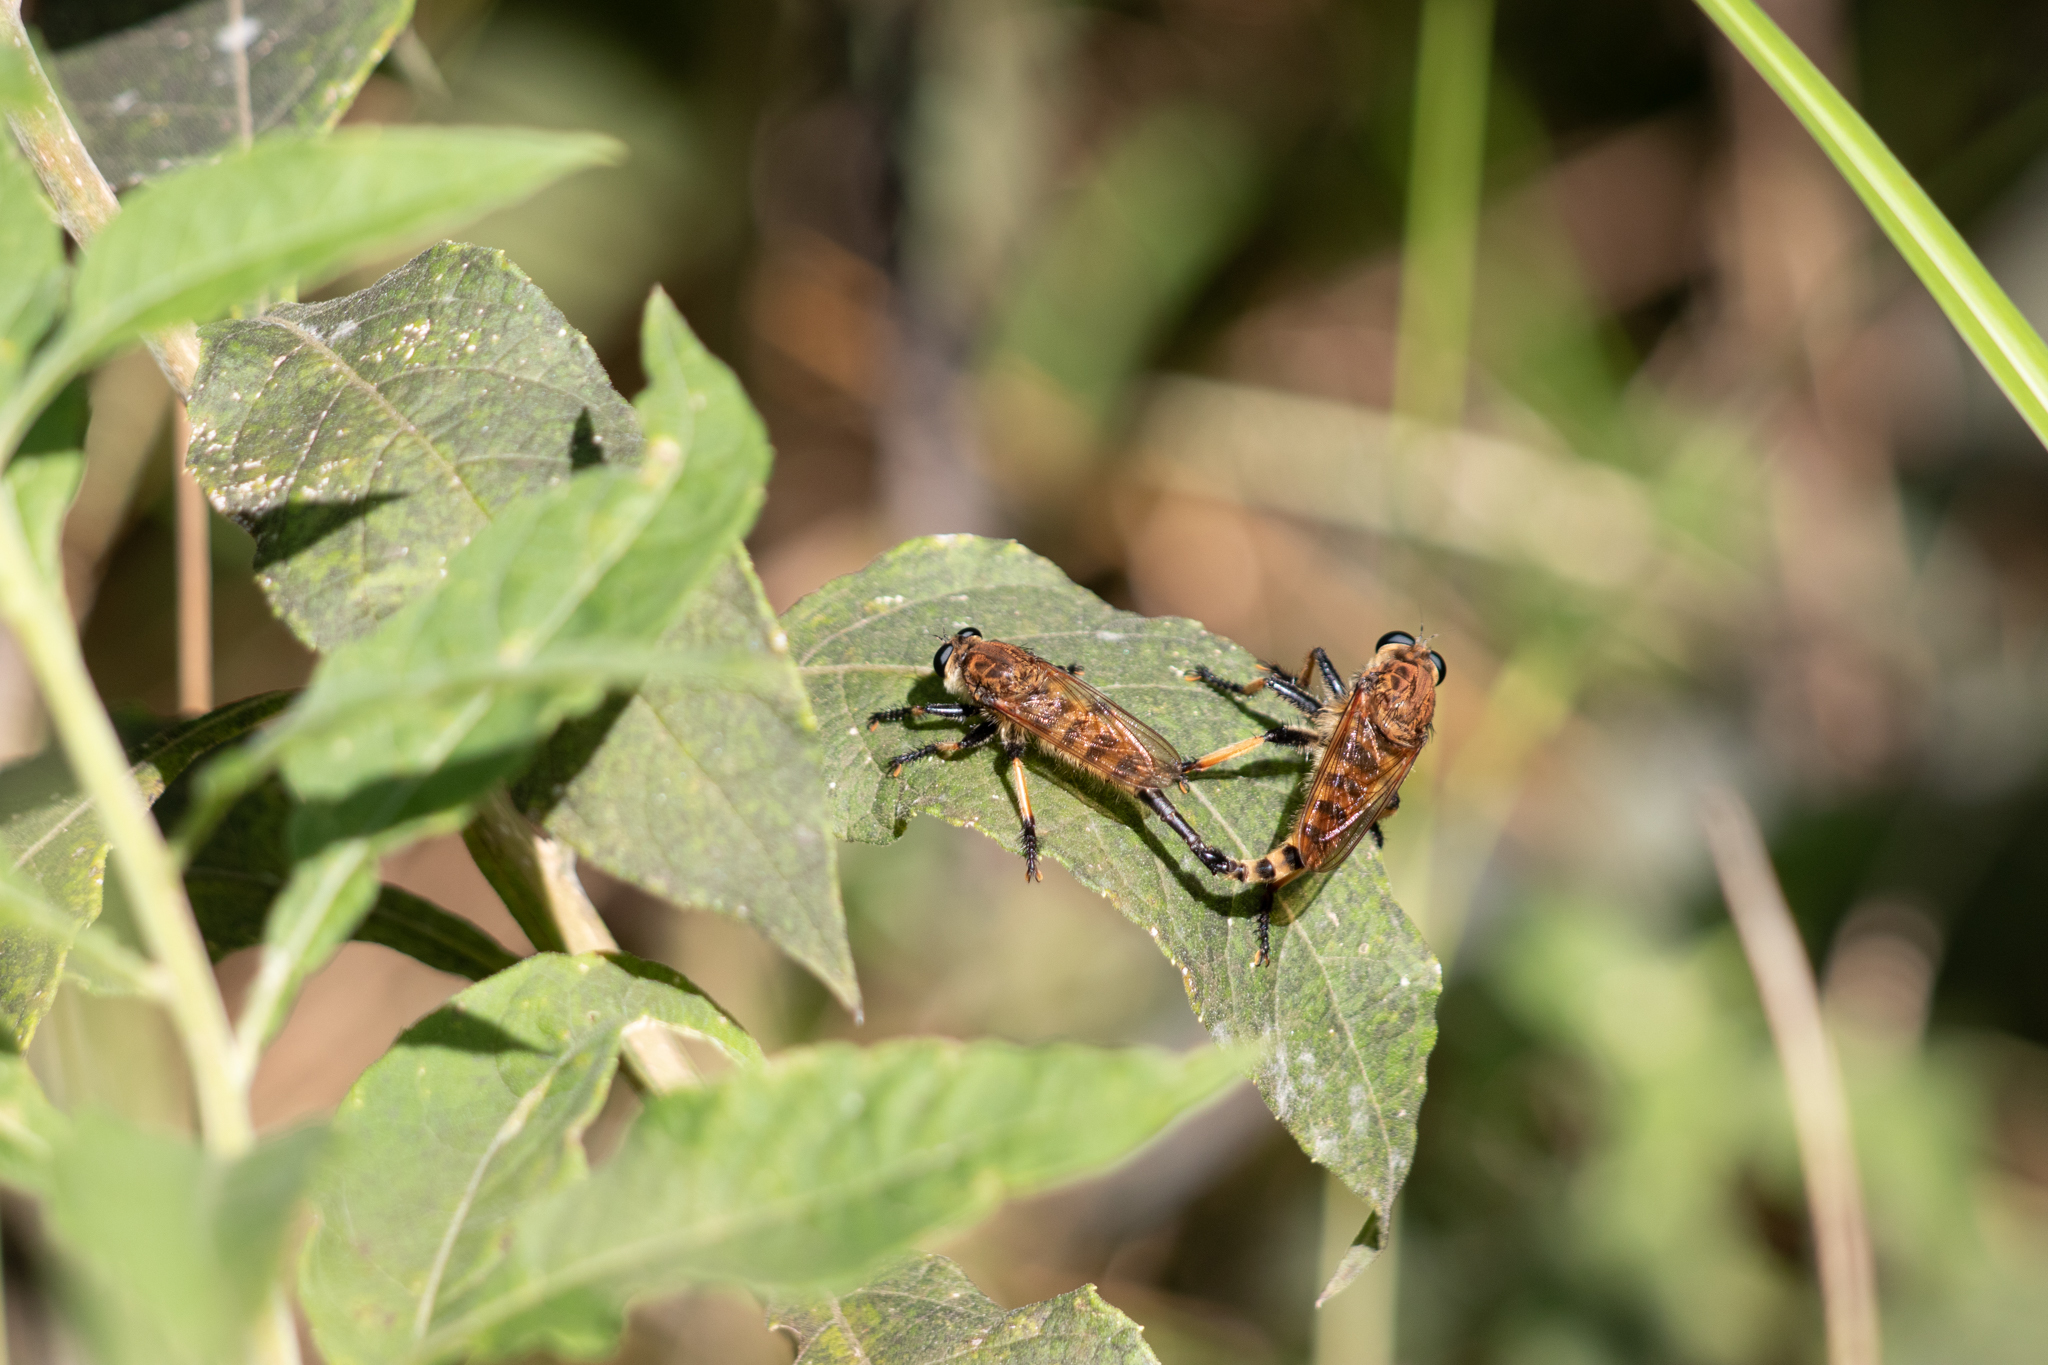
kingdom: Animalia
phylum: Arthropoda
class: Insecta
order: Diptera
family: Asilidae
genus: Promachus
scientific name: Promachus rufipes
